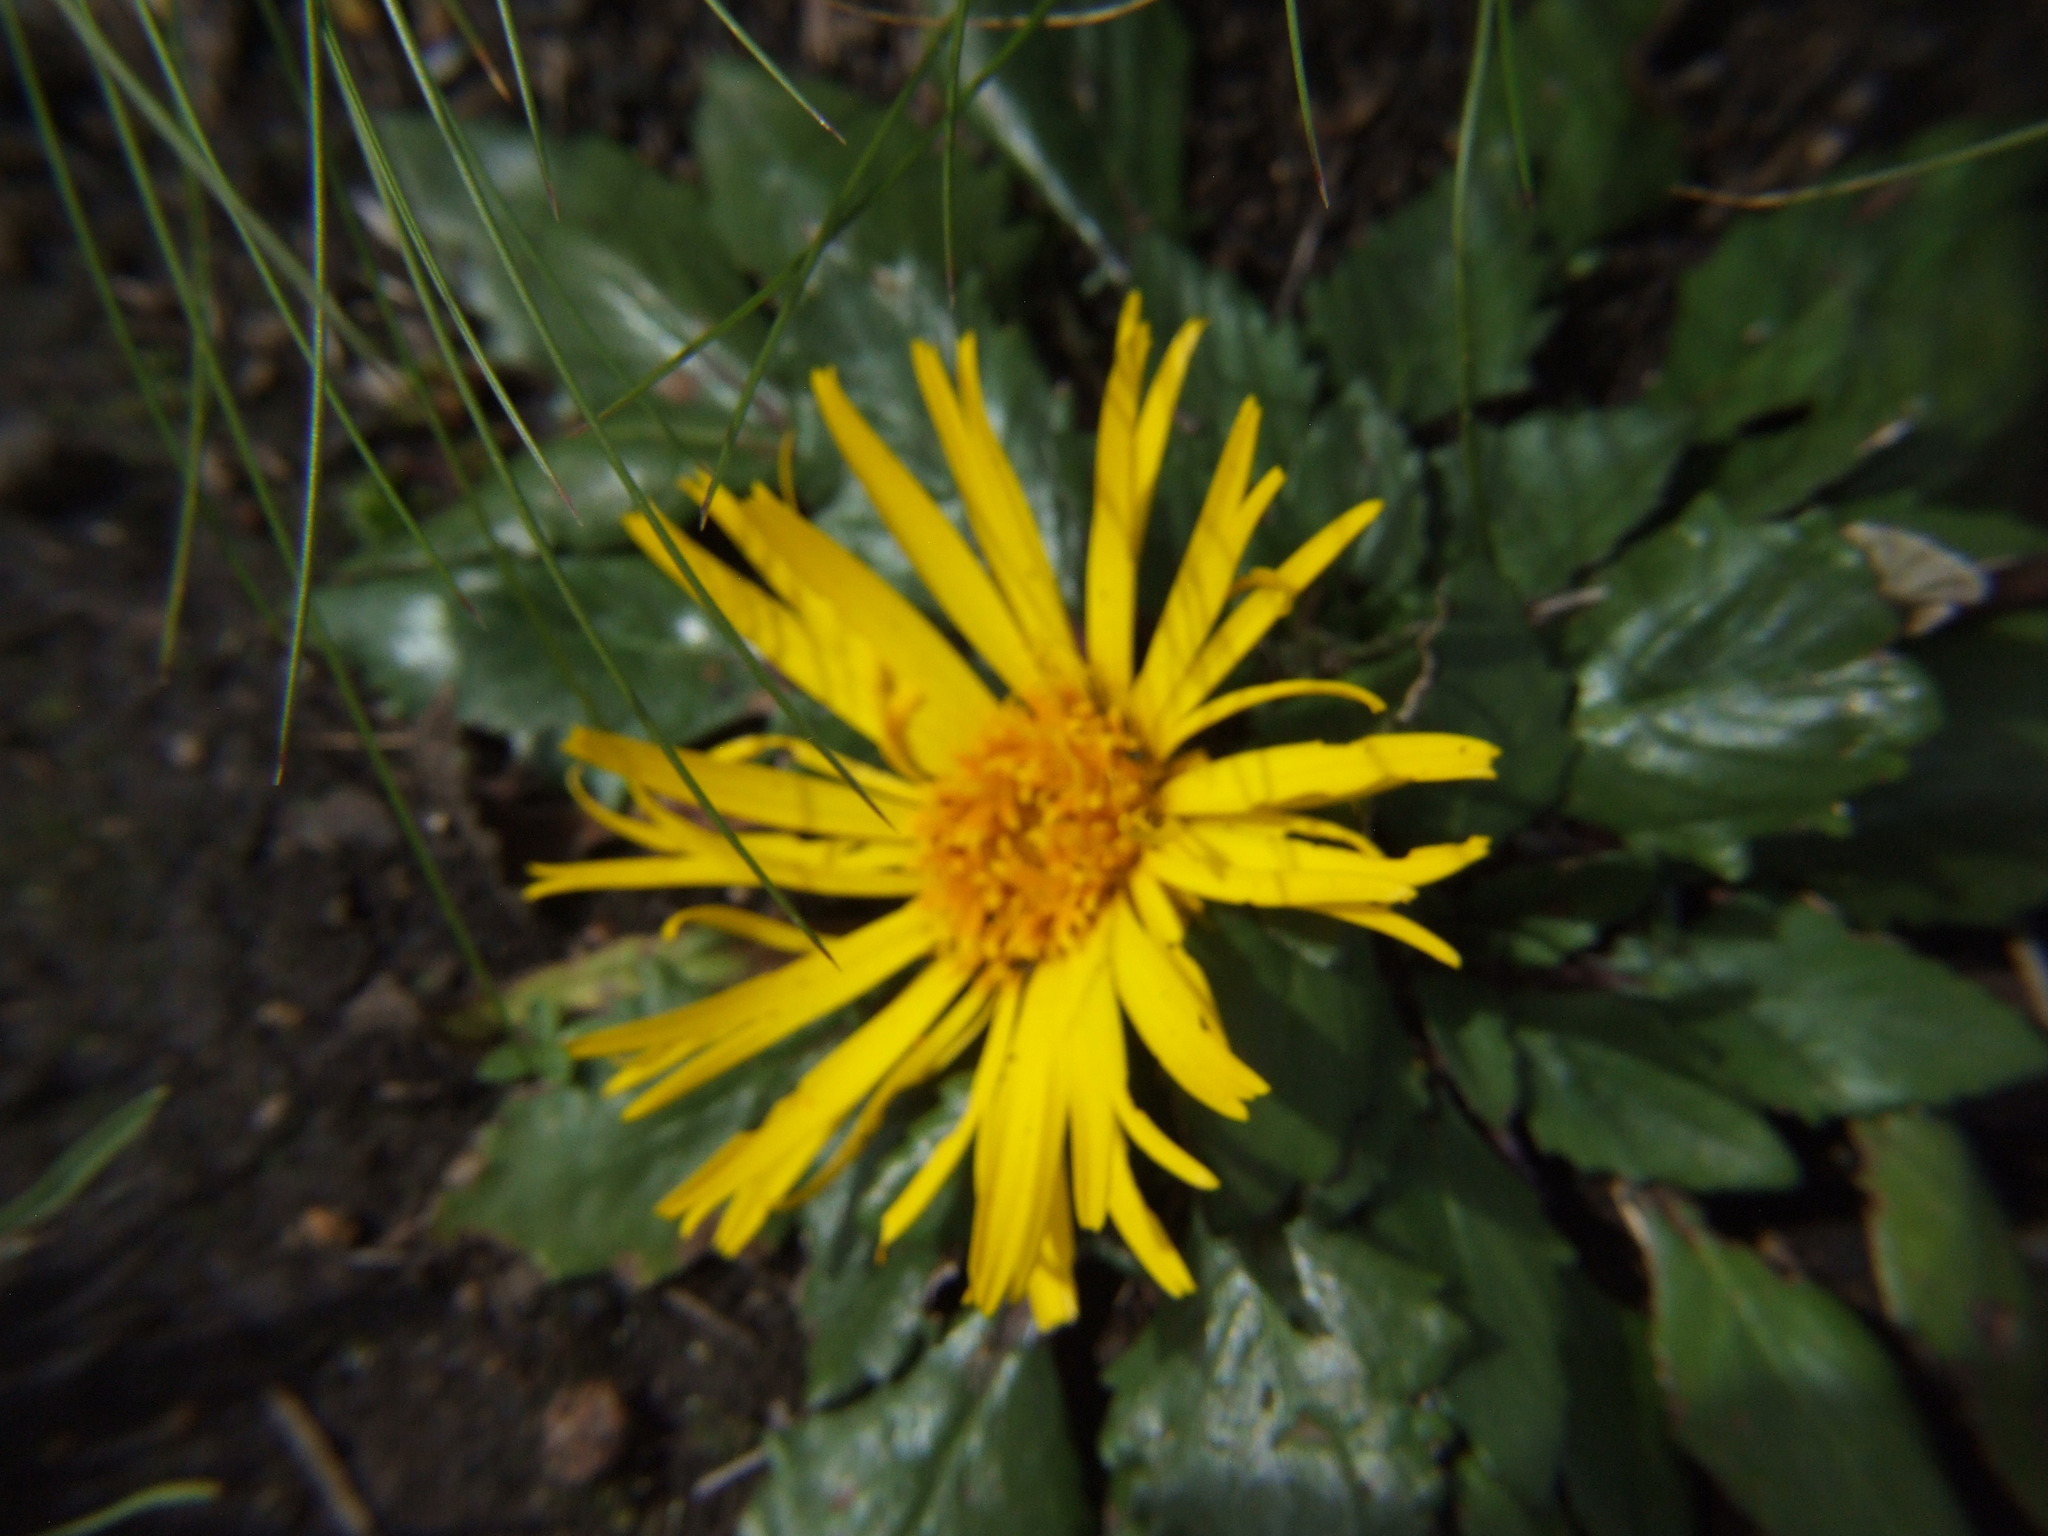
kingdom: Plantae
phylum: Tracheophyta
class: Magnoliopsida
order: Asterales
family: Asteraceae
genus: Paranephelius
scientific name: Paranephelius ovatus
